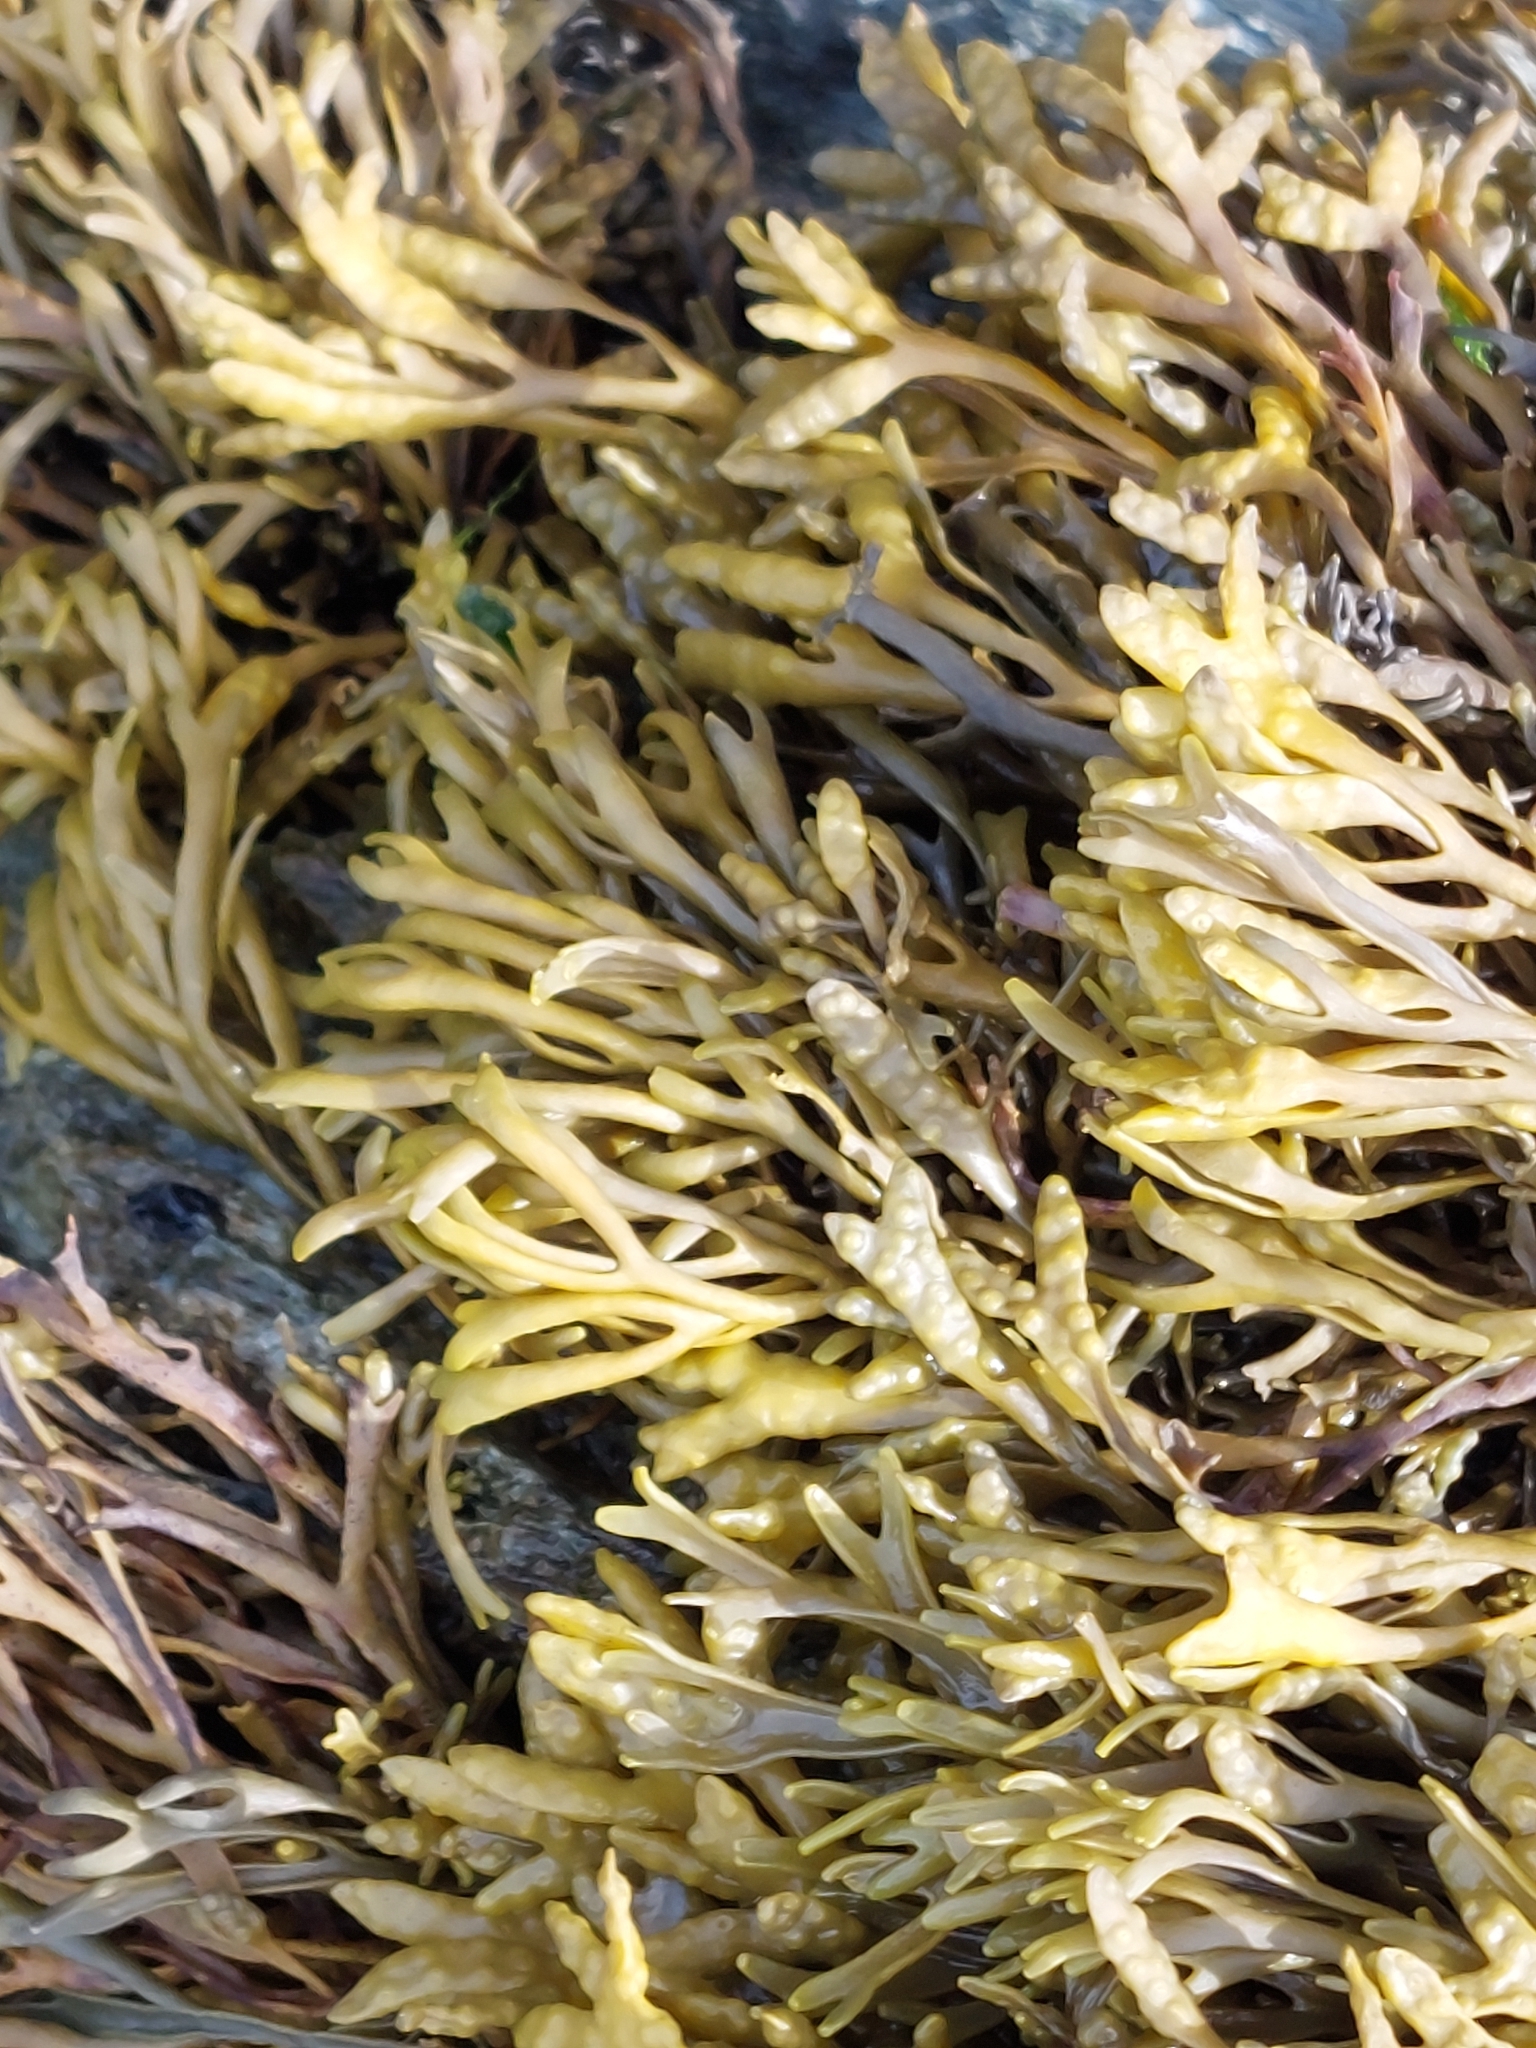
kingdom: Chromista
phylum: Ochrophyta
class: Phaeophyceae
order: Fucales
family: Fucaceae
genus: Pelvetia
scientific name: Pelvetia canaliculata
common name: Channelled wrack
